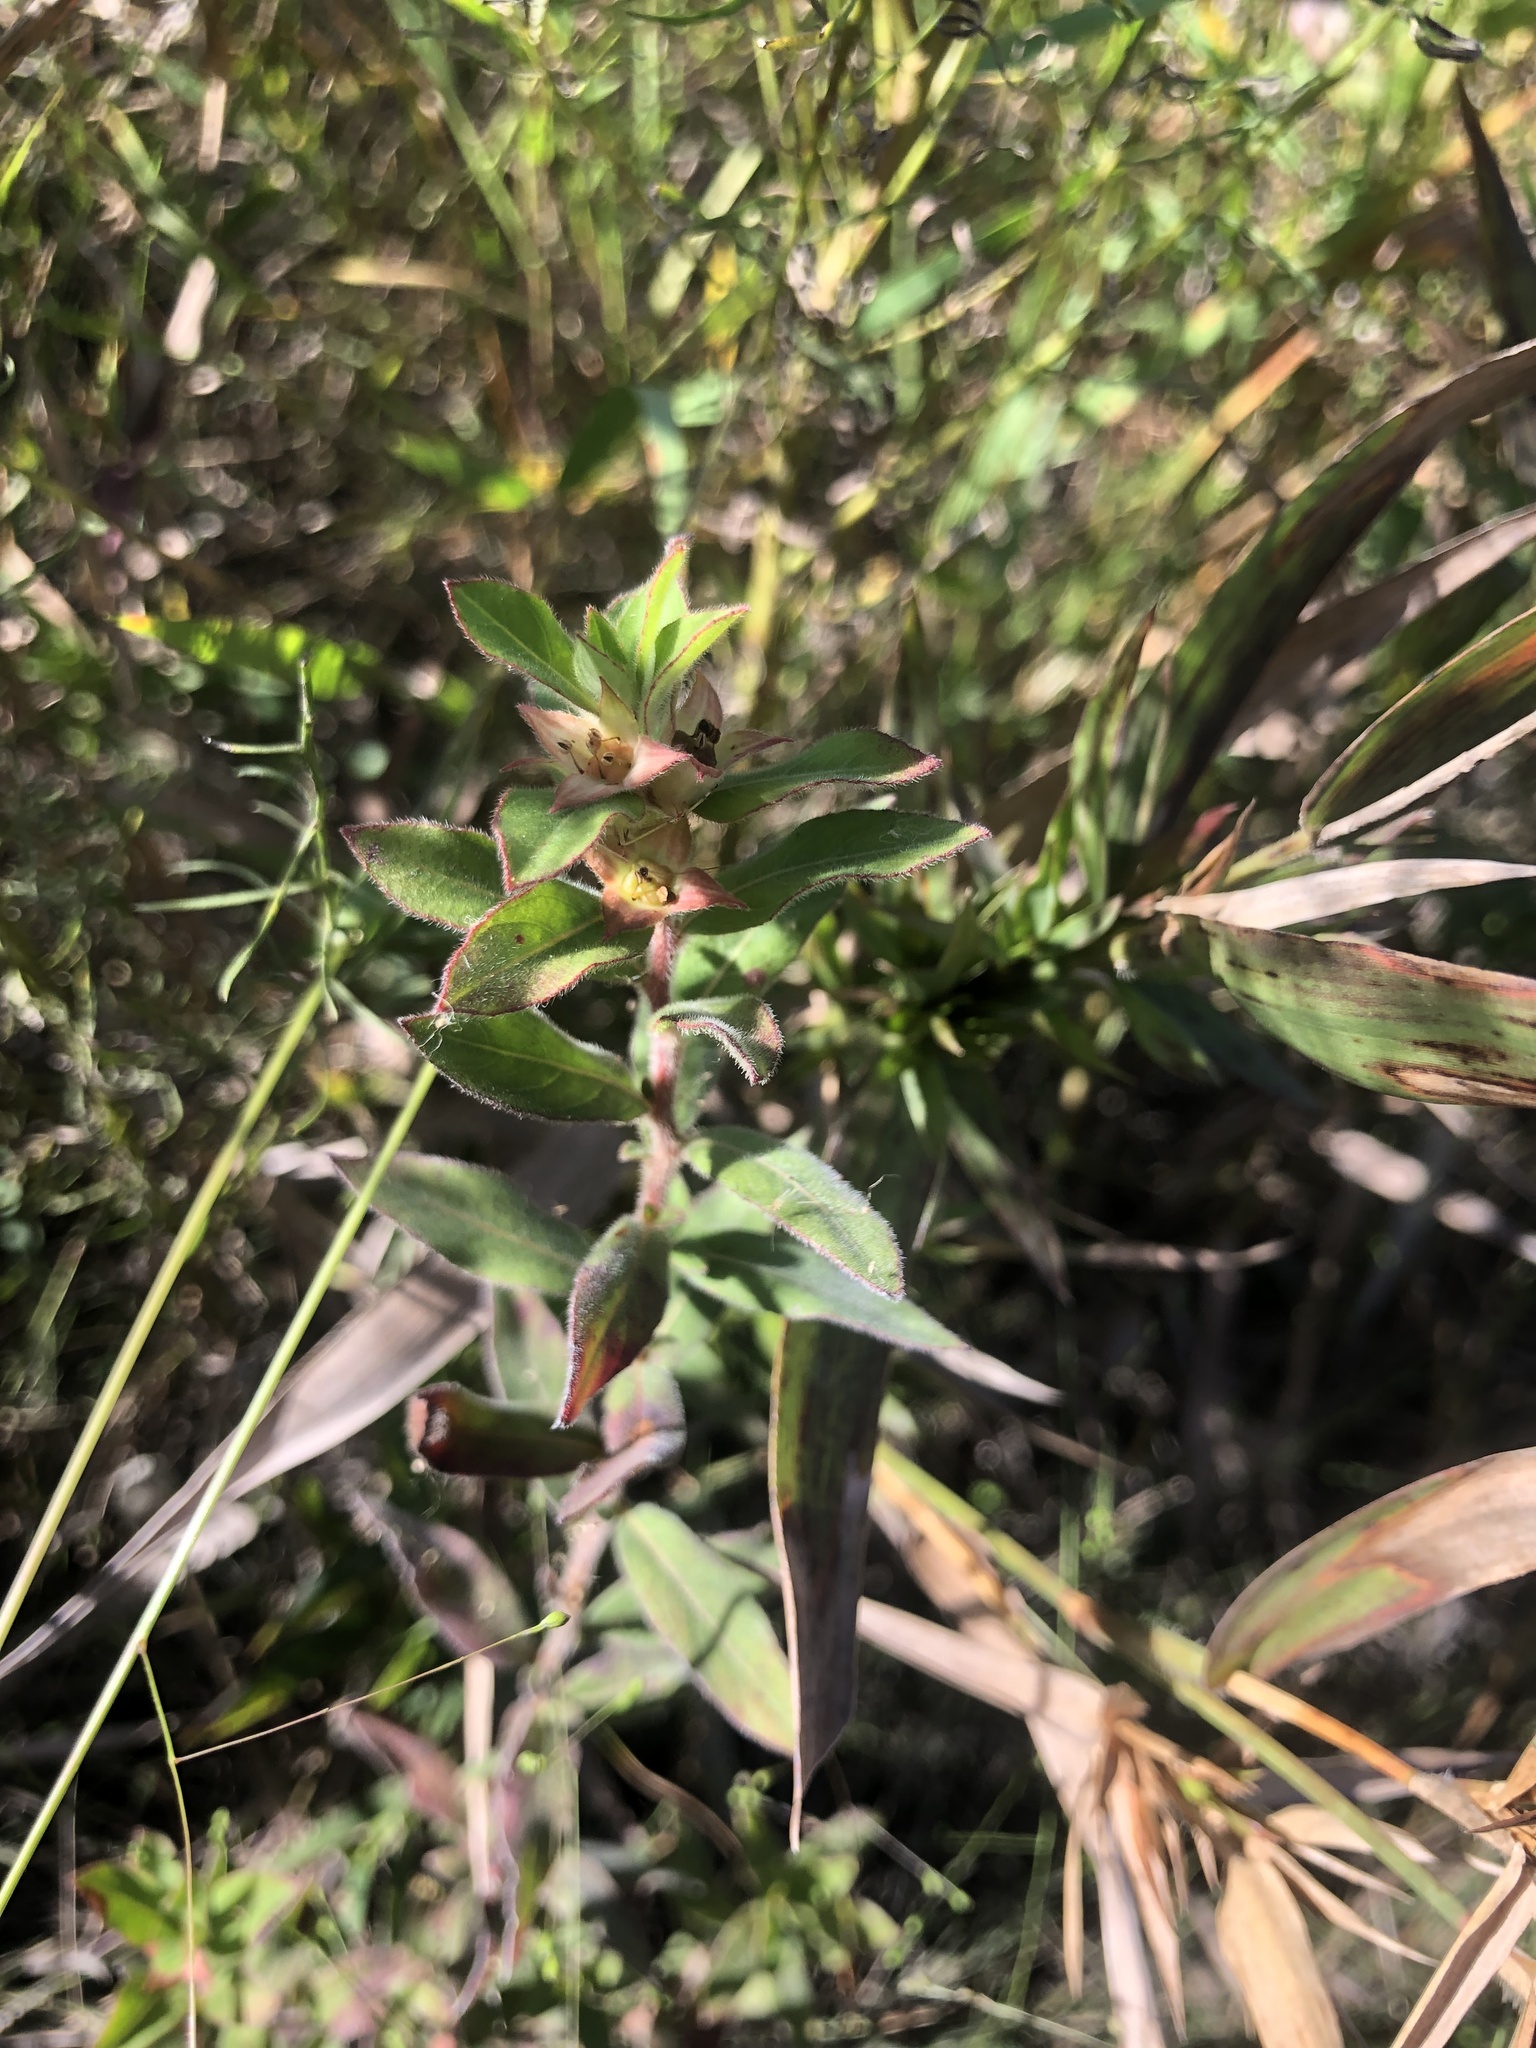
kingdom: Plantae
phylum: Tracheophyta
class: Magnoliopsida
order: Myrtales
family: Onagraceae
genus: Ludwigia
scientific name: Ludwigia pilosa
